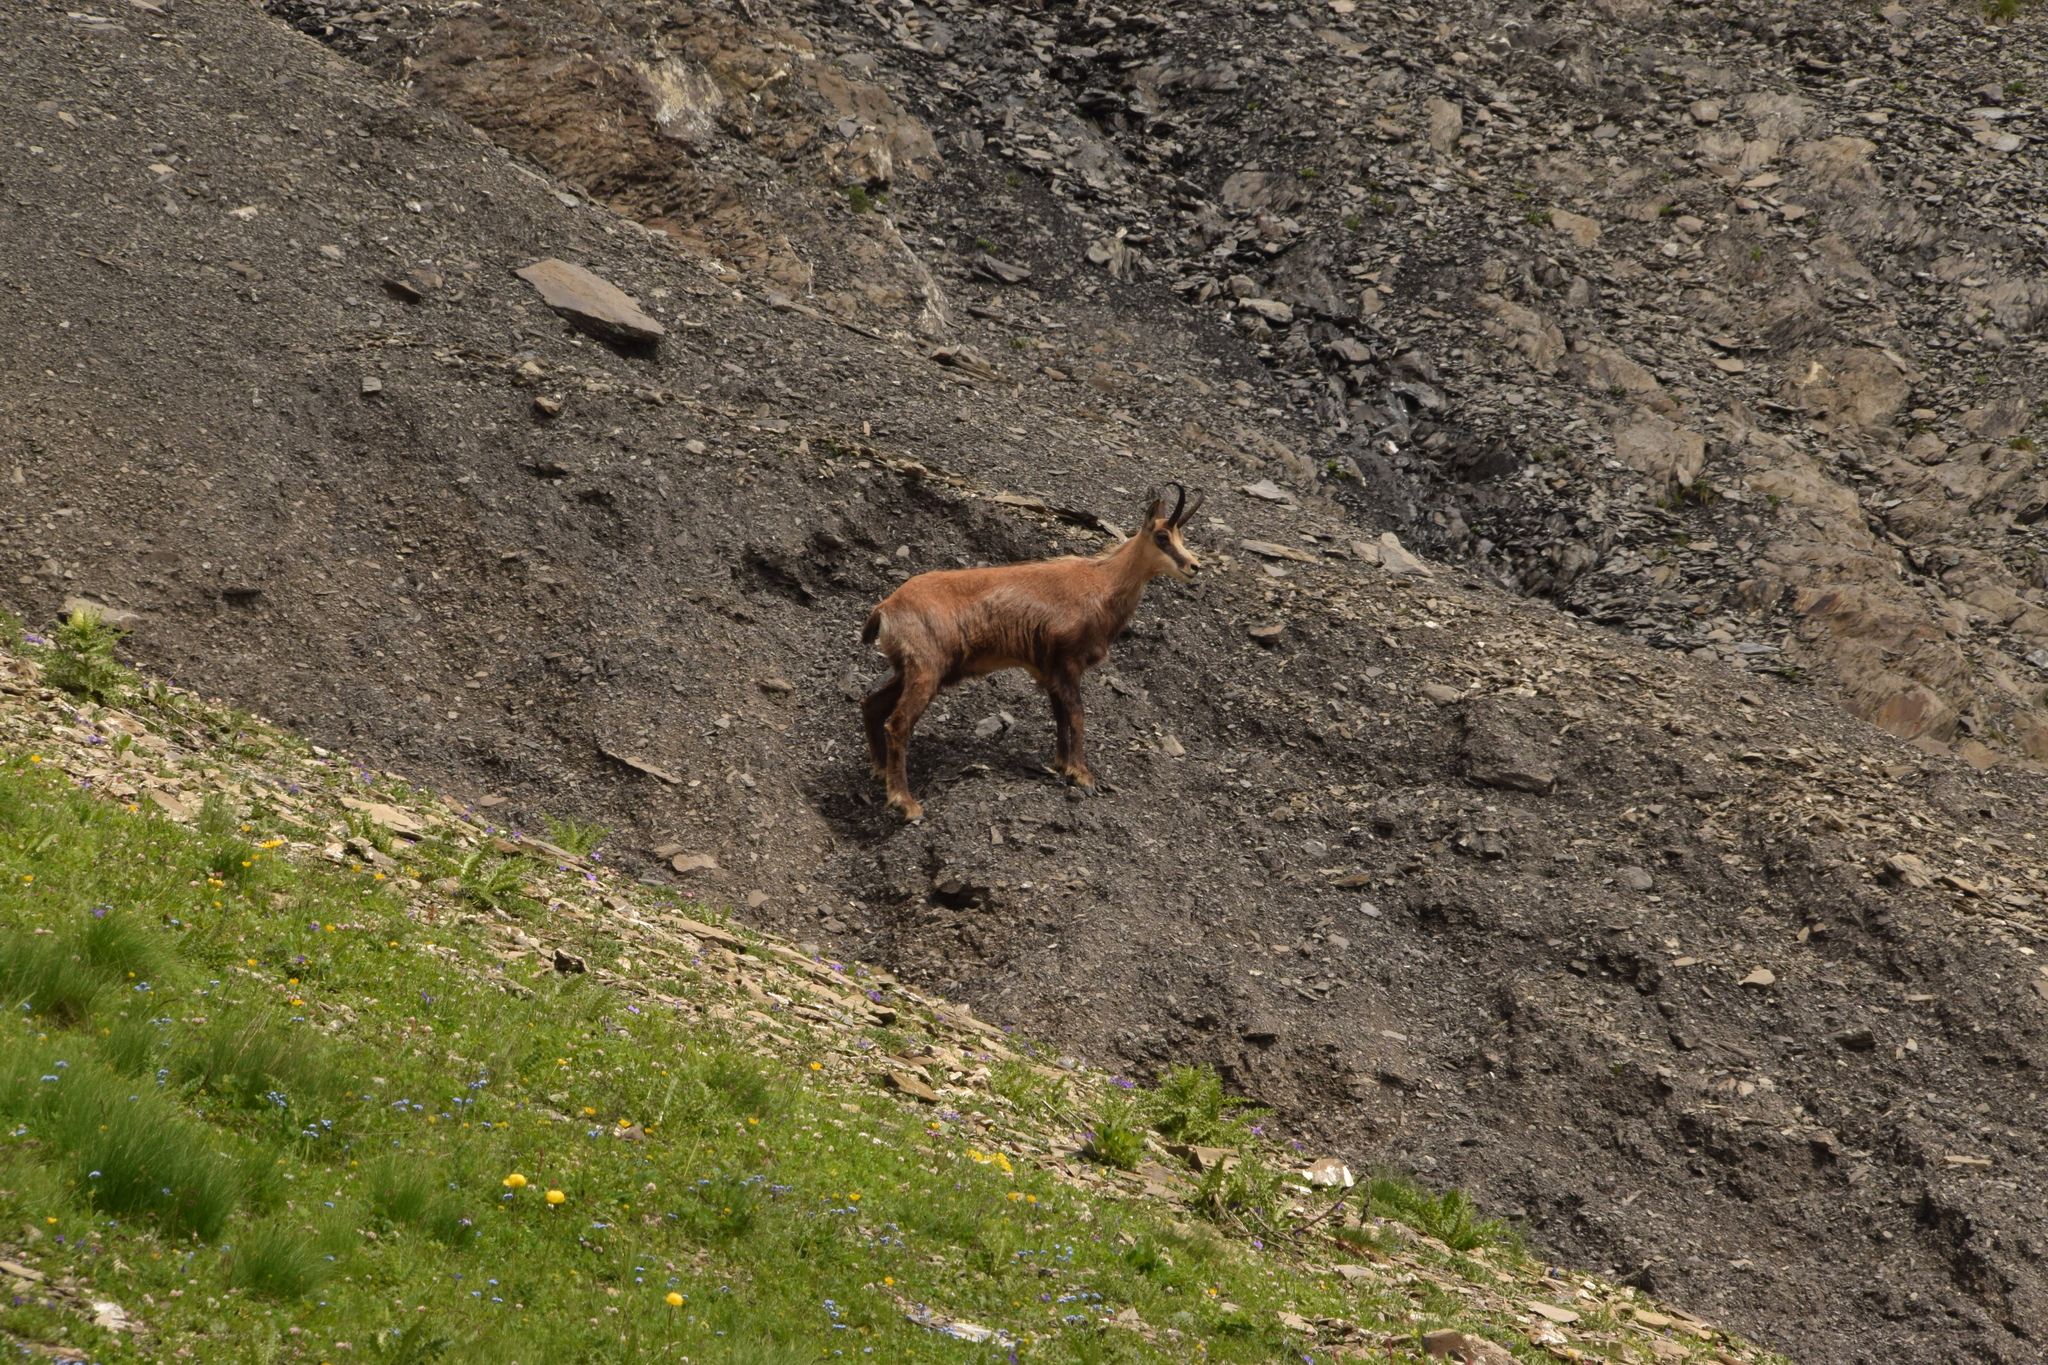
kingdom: Animalia
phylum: Chordata
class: Mammalia
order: Artiodactyla
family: Bovidae
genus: Rupicapra
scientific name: Rupicapra rupicapra
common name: Chamois
